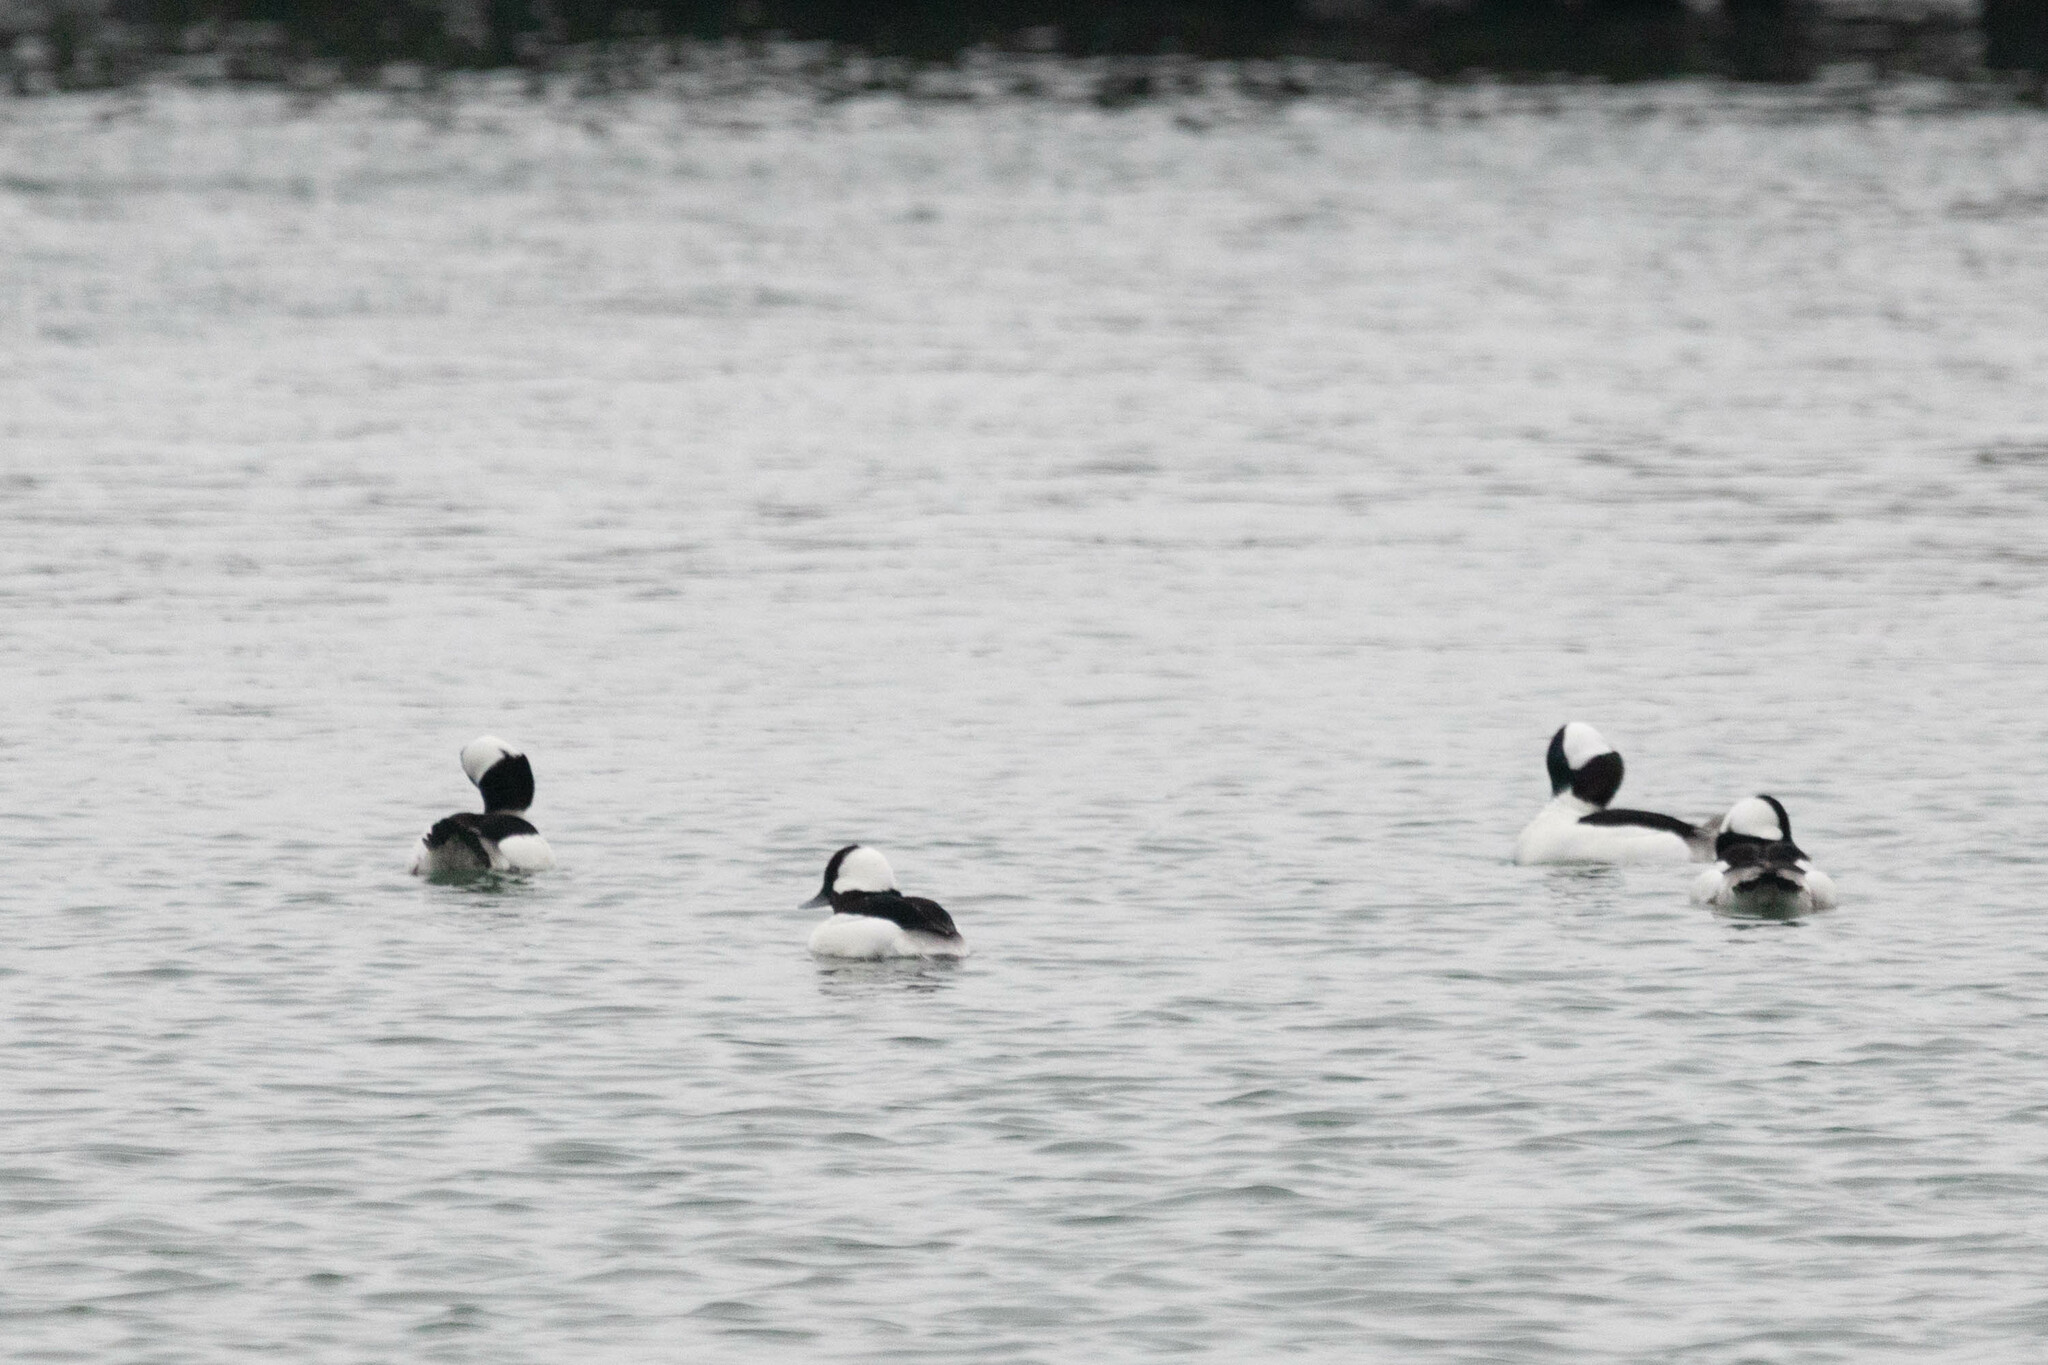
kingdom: Animalia
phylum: Chordata
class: Aves
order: Anseriformes
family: Anatidae
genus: Bucephala
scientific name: Bucephala albeola
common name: Bufflehead
